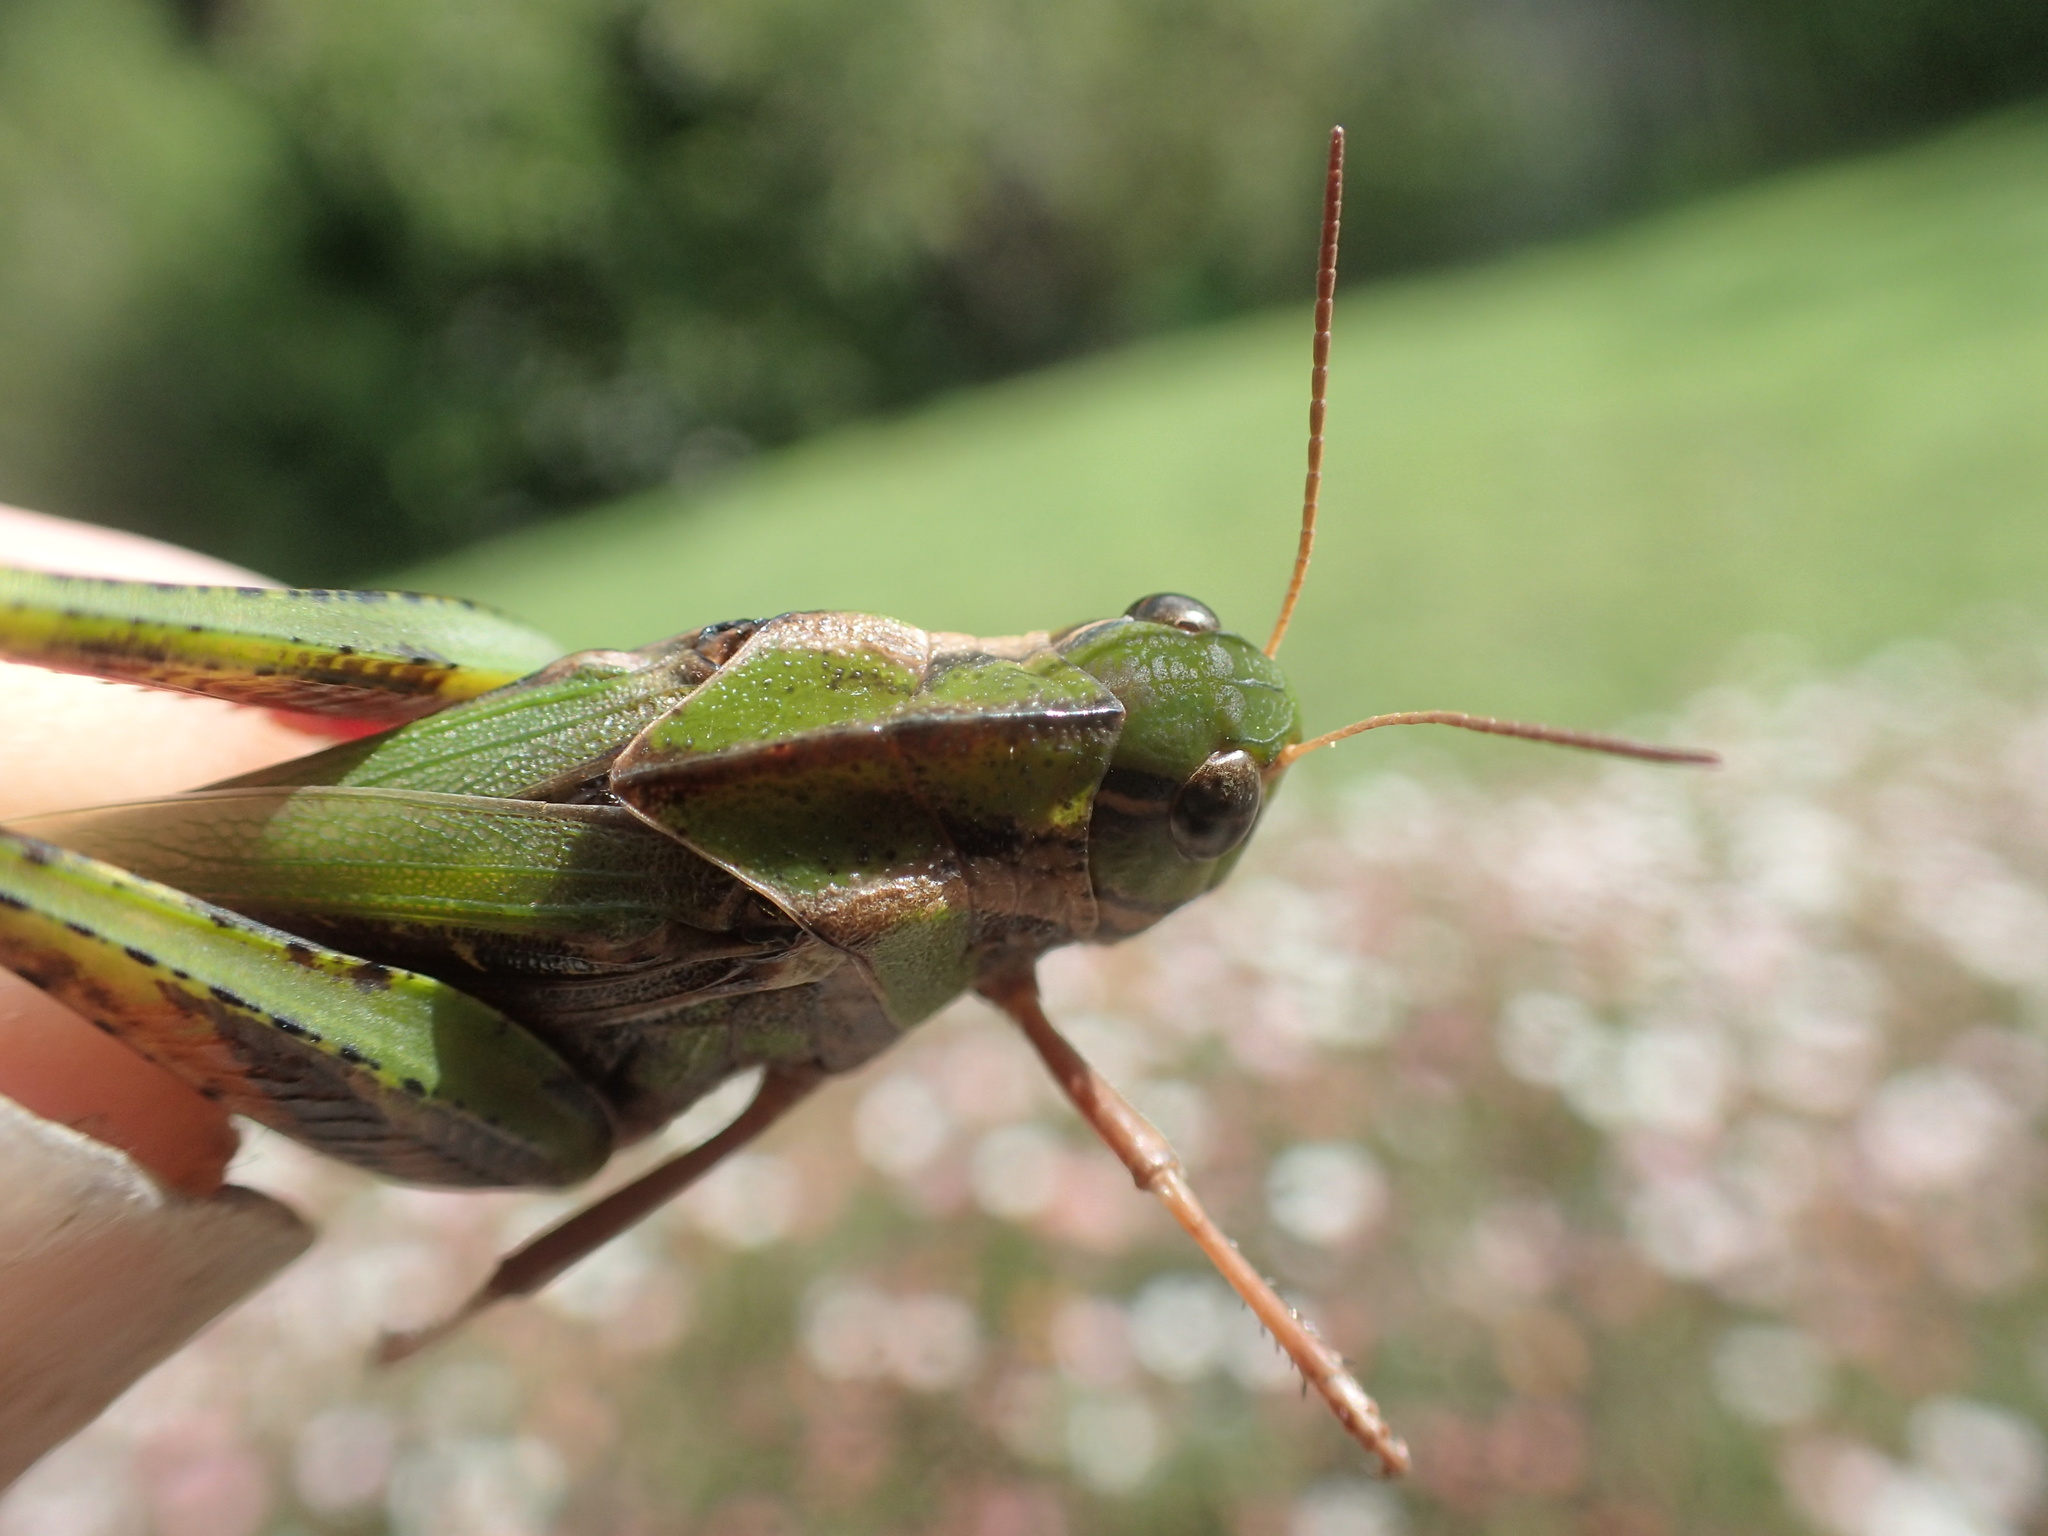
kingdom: Animalia
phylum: Arthropoda
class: Insecta
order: Orthoptera
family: Acrididae
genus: Gastrimargus
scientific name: Gastrimargus musicus
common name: Yellow-winged locust
